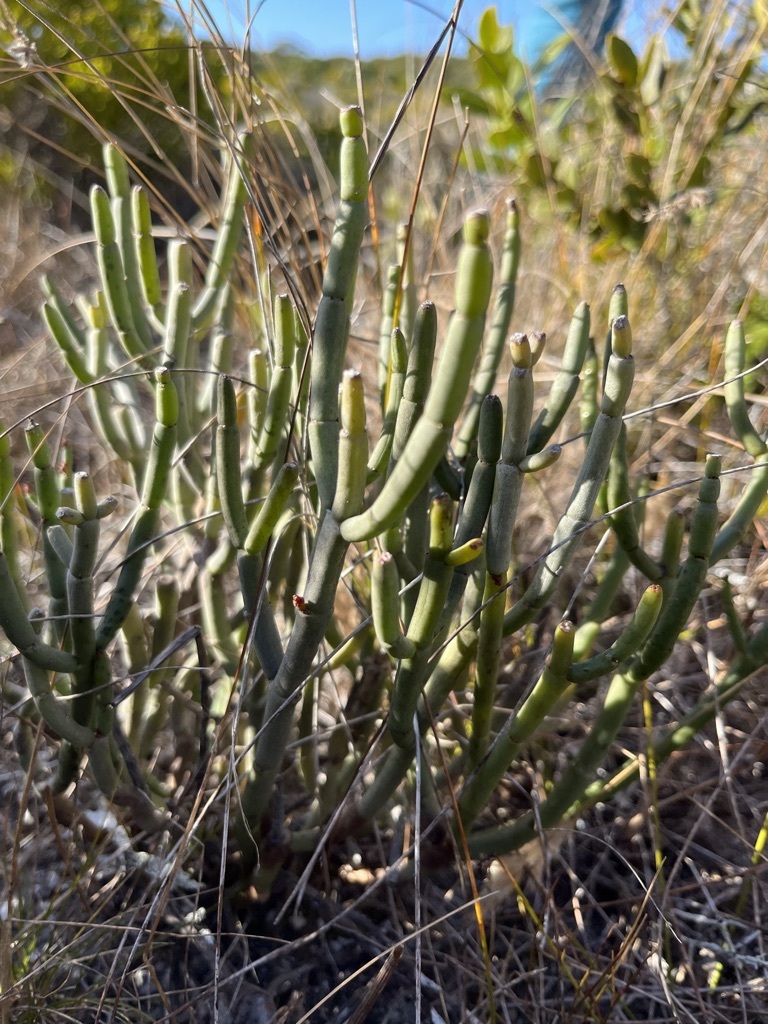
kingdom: Plantae
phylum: Tracheophyta
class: Magnoliopsida
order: Malpighiales
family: Euphorbiaceae
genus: Euphorbia
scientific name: Euphorbia burmanni
